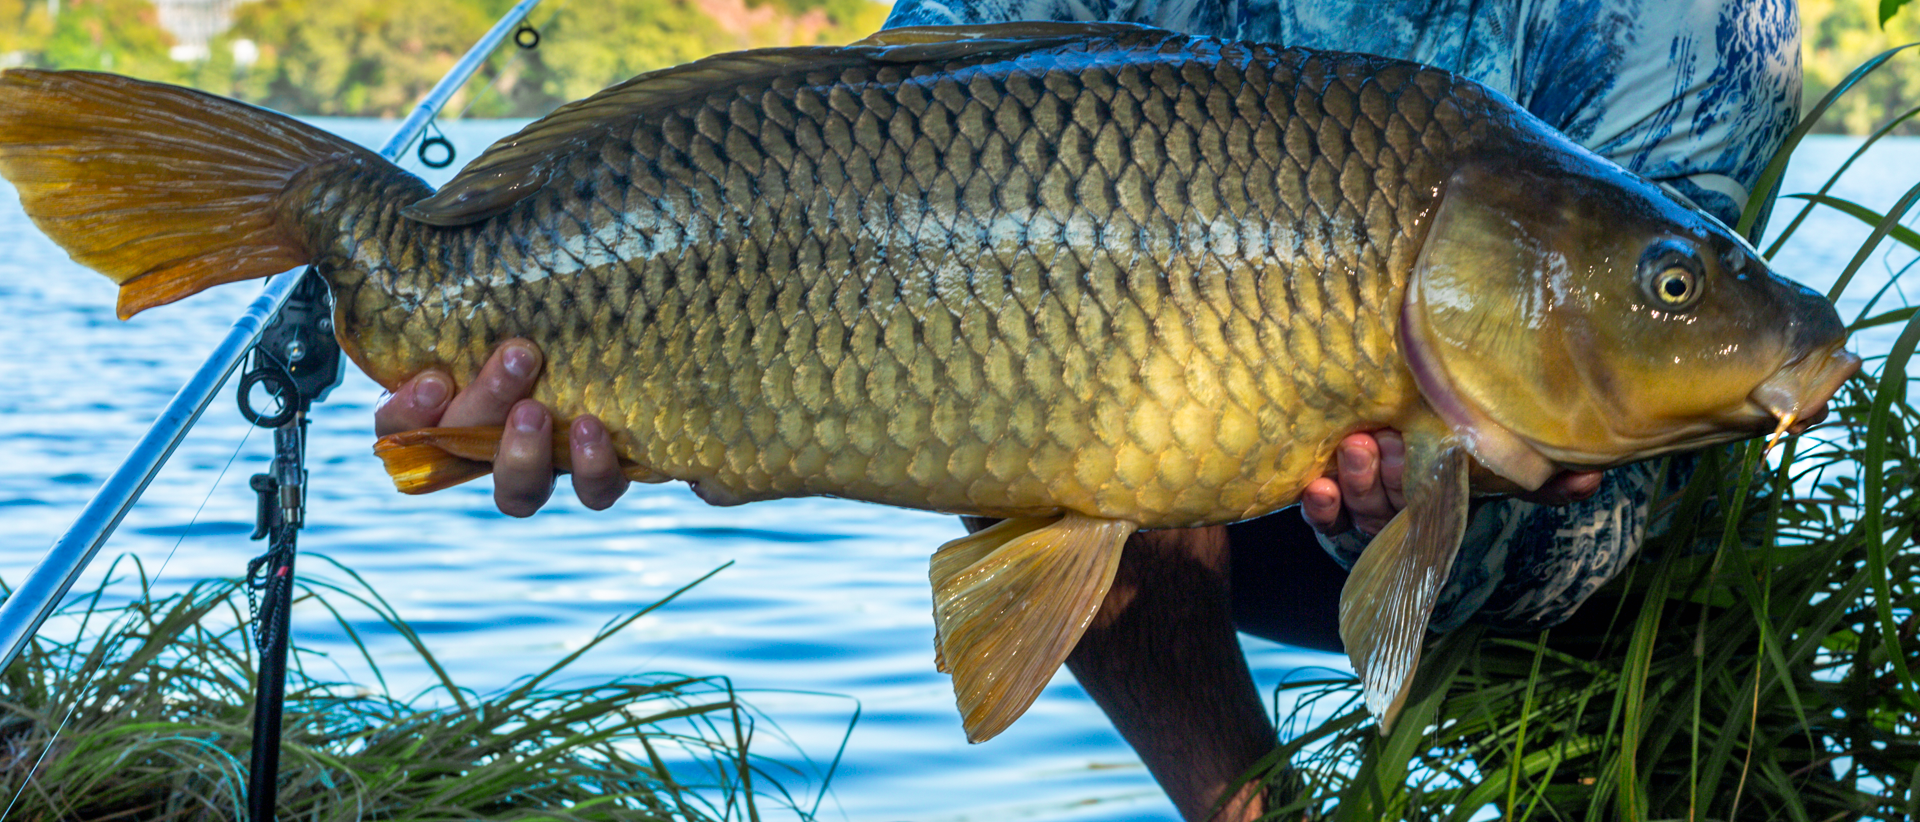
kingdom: Animalia
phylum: Chordata
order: Cypriniformes
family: Cyprinidae
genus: Cyprinus
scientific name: Cyprinus carpio
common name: Common carp
